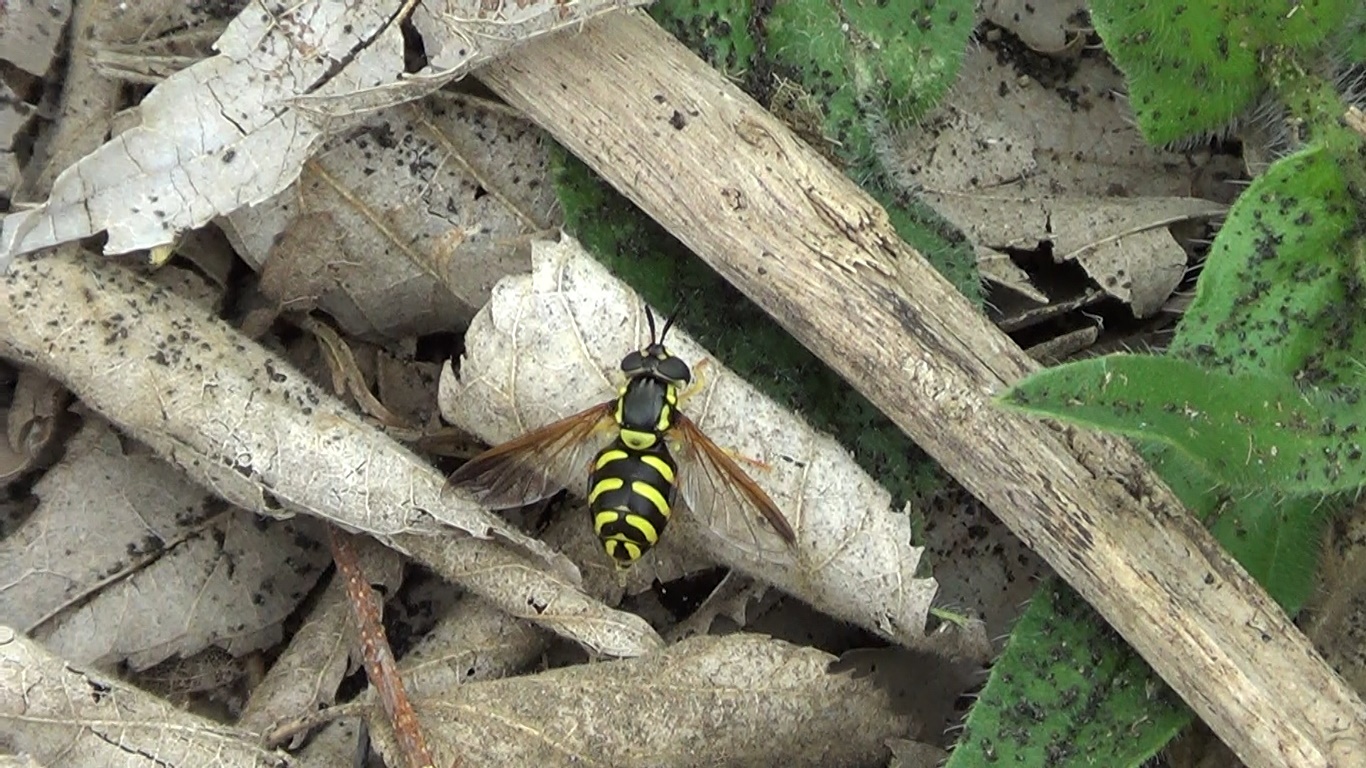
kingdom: Animalia
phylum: Arthropoda
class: Insecta
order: Diptera
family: Syrphidae
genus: Chrysotoxum
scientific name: Chrysotoxum intermedium
